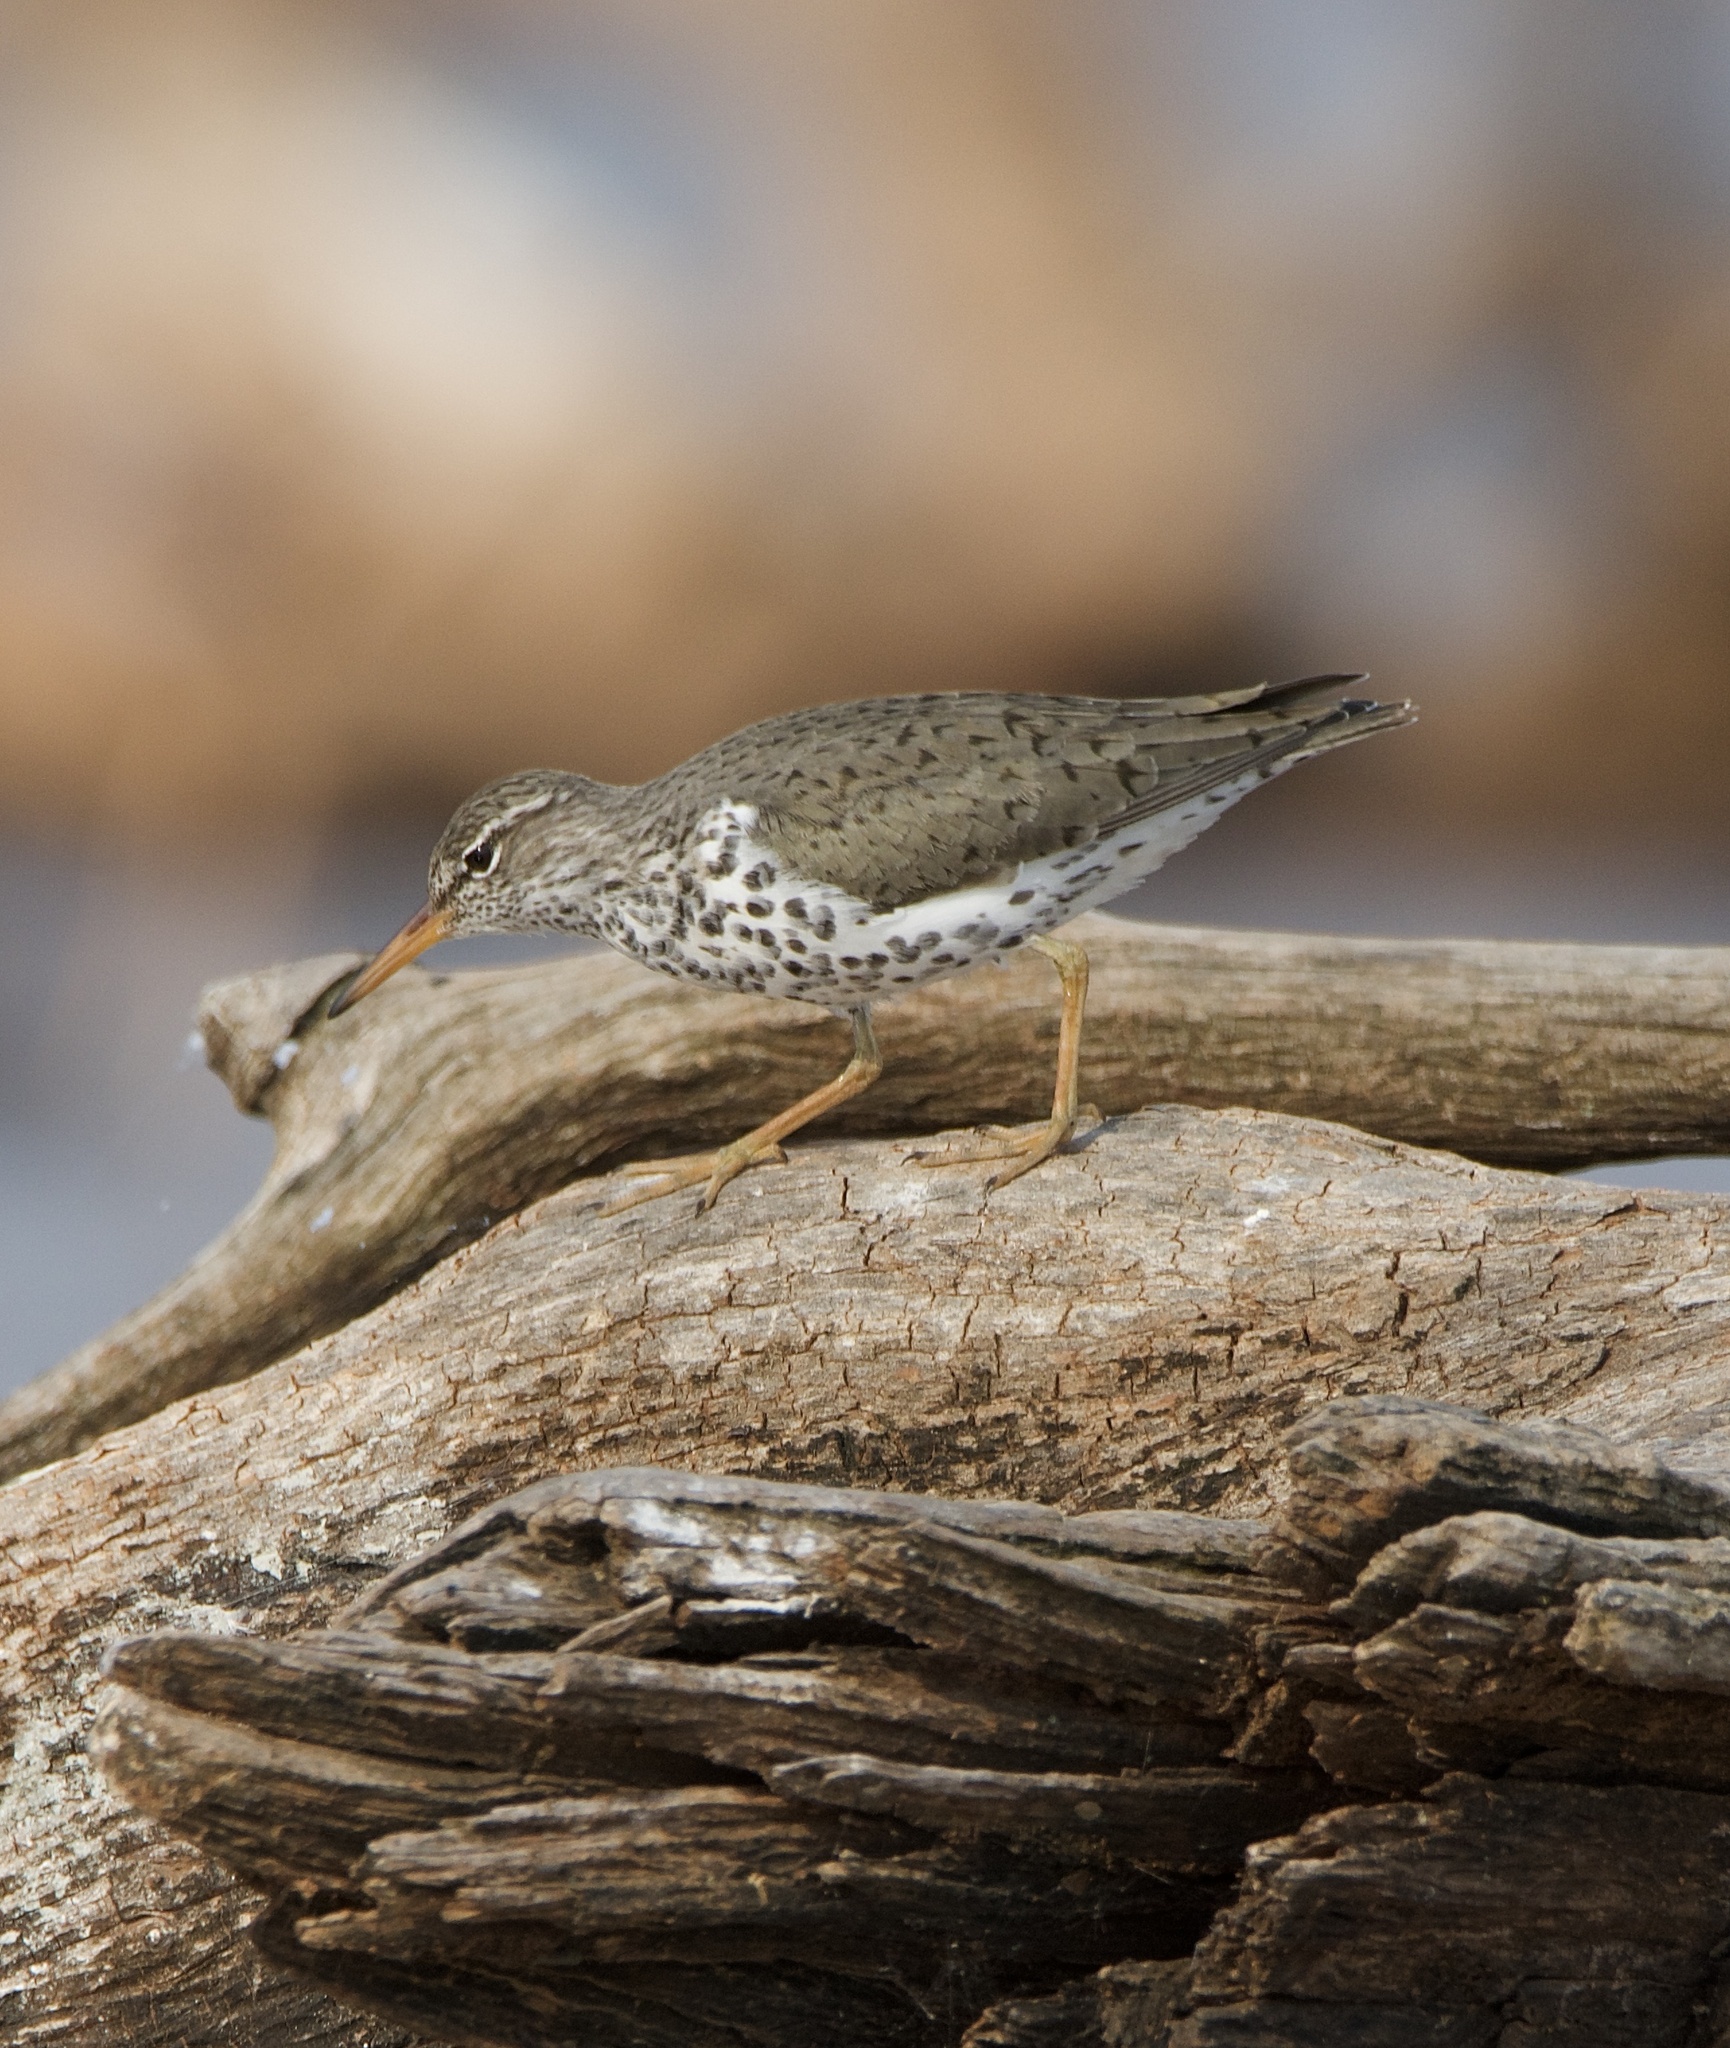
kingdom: Animalia
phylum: Chordata
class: Aves
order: Charadriiformes
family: Scolopacidae
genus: Actitis
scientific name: Actitis macularius
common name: Spotted sandpiper
